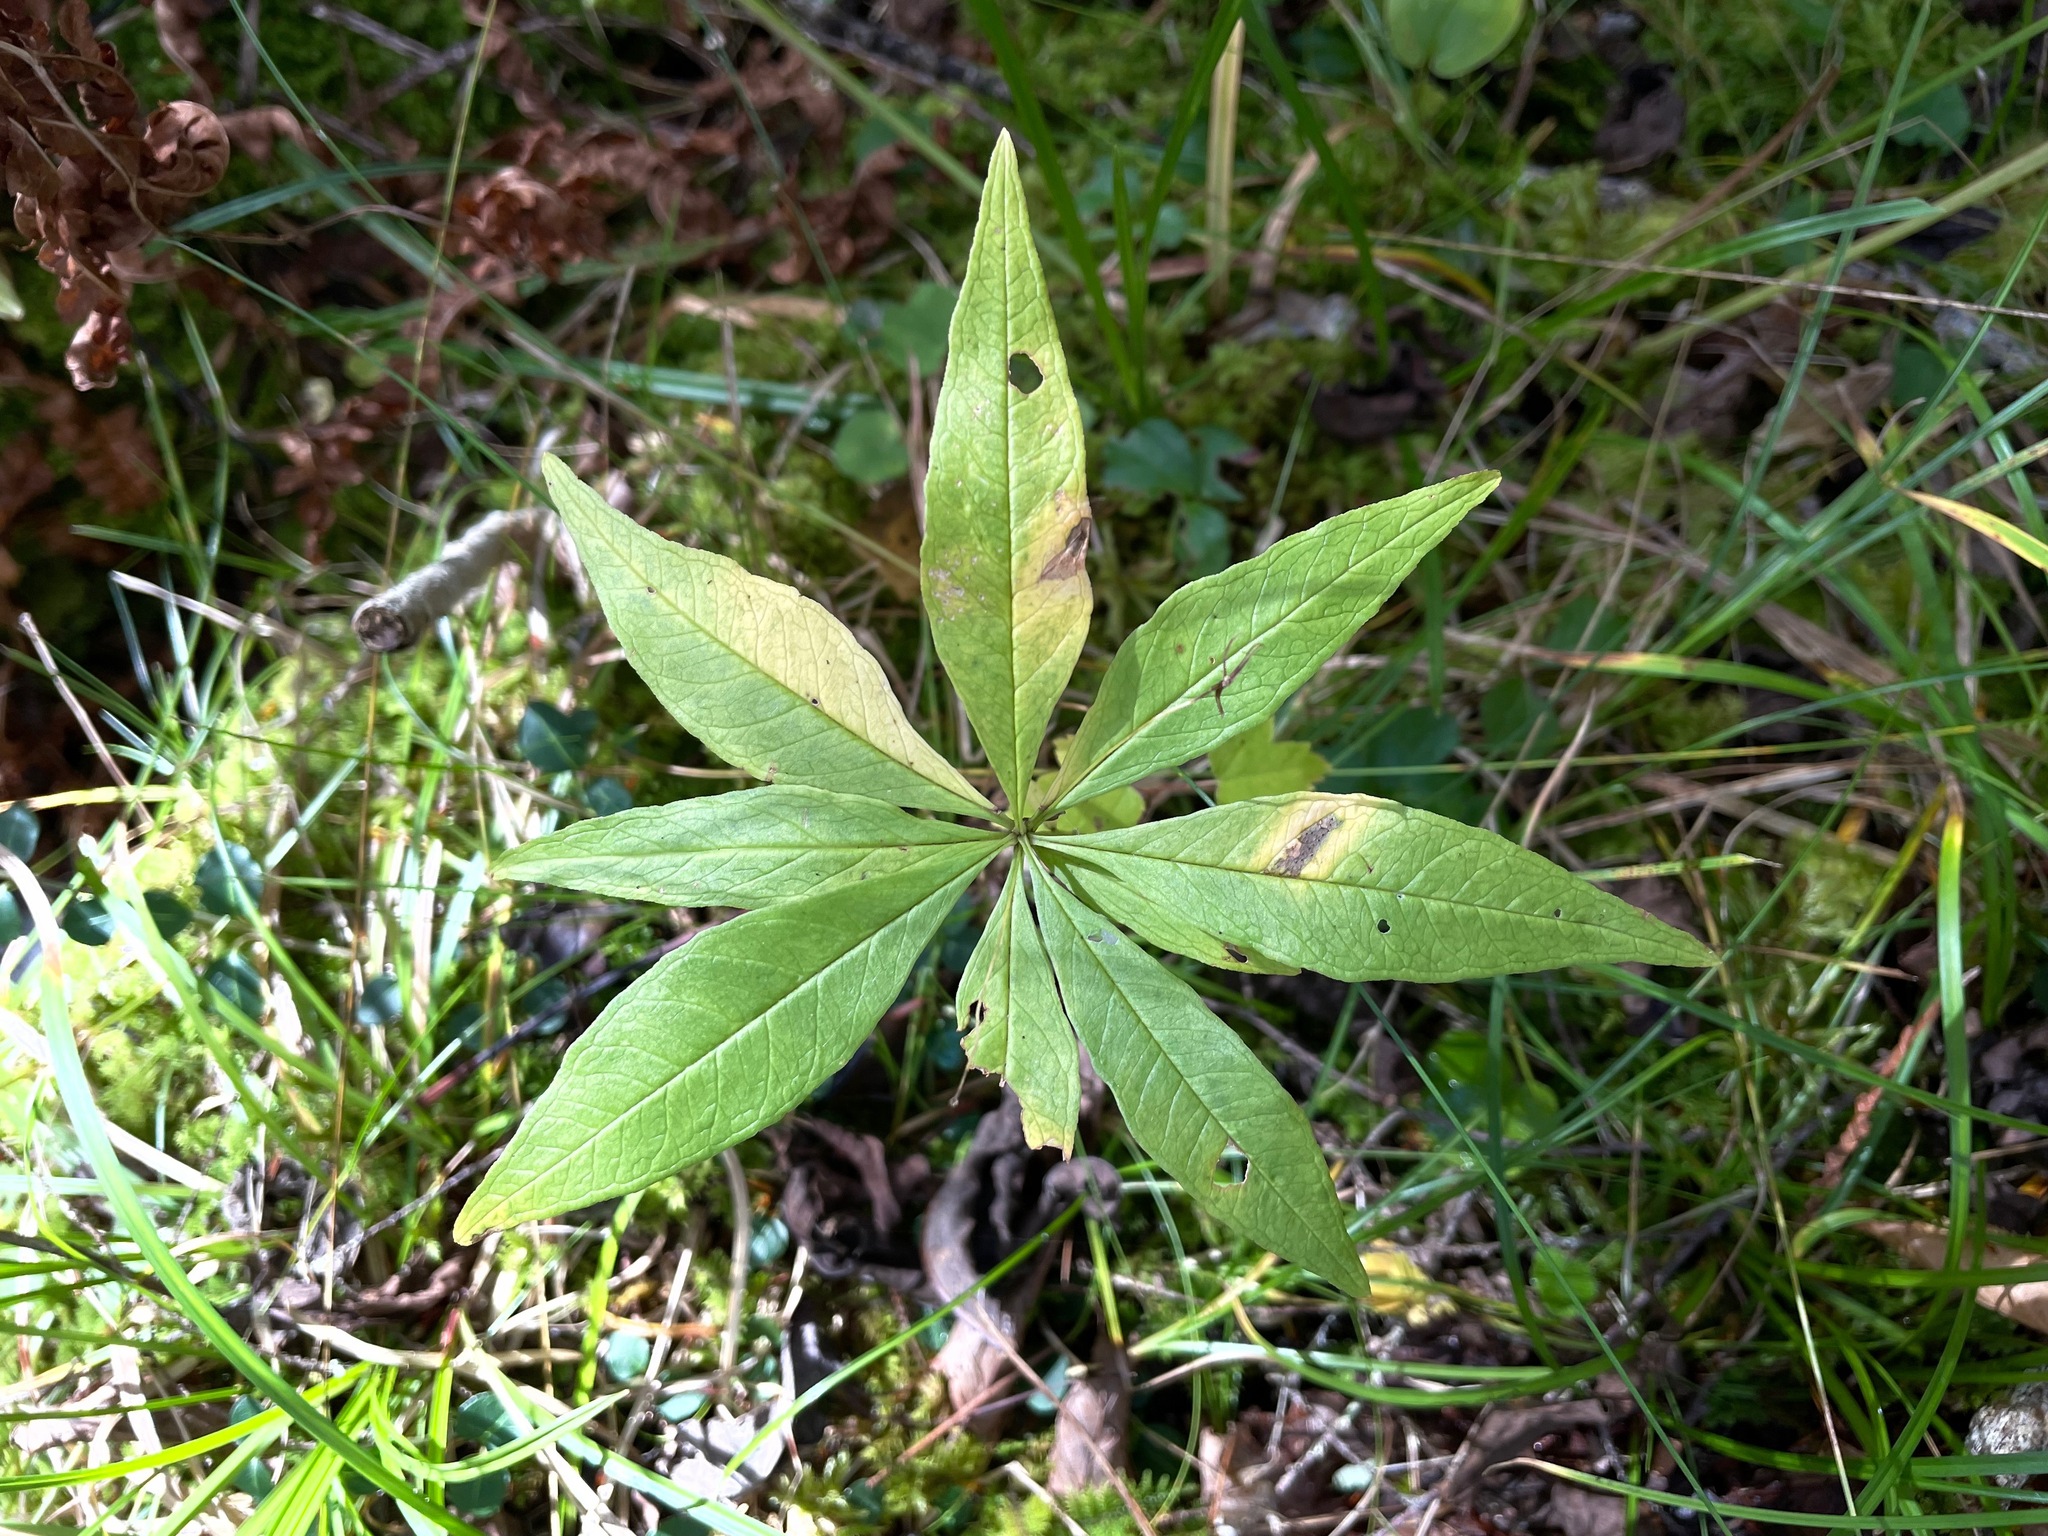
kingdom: Plantae
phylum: Tracheophyta
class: Magnoliopsida
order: Ericales
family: Primulaceae
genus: Lysimachia
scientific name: Lysimachia borealis
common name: American starflower
